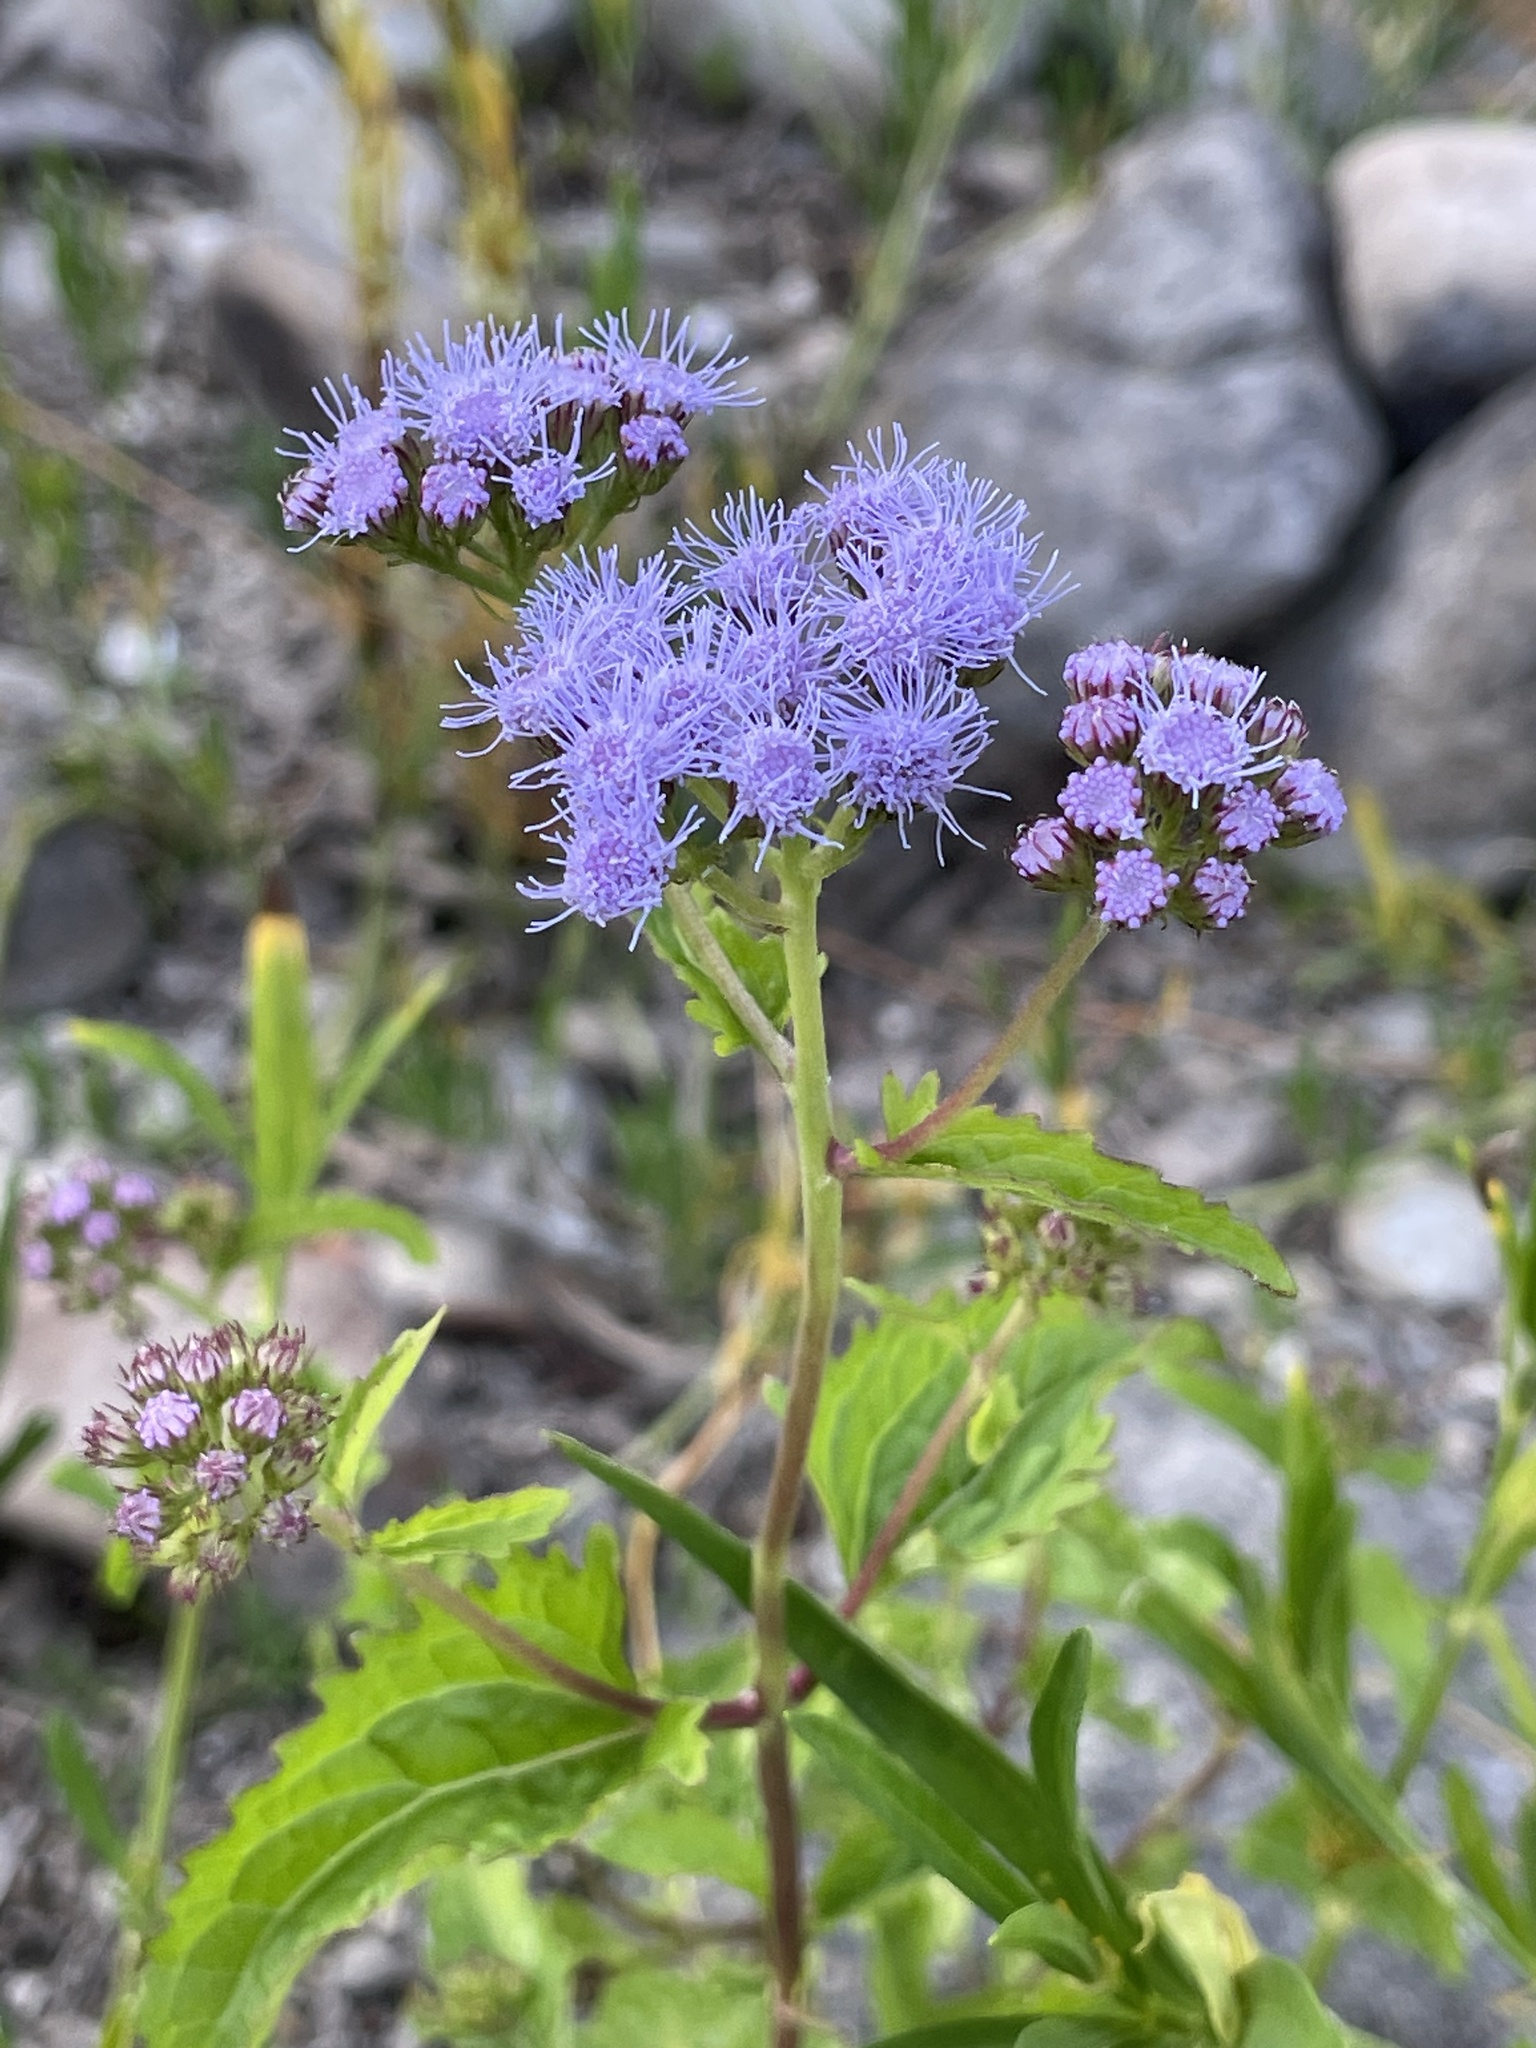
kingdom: Plantae
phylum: Tracheophyta
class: Magnoliopsida
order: Asterales
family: Asteraceae
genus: Conoclinium
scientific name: Conoclinium coelestinum
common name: Blue mistflower
